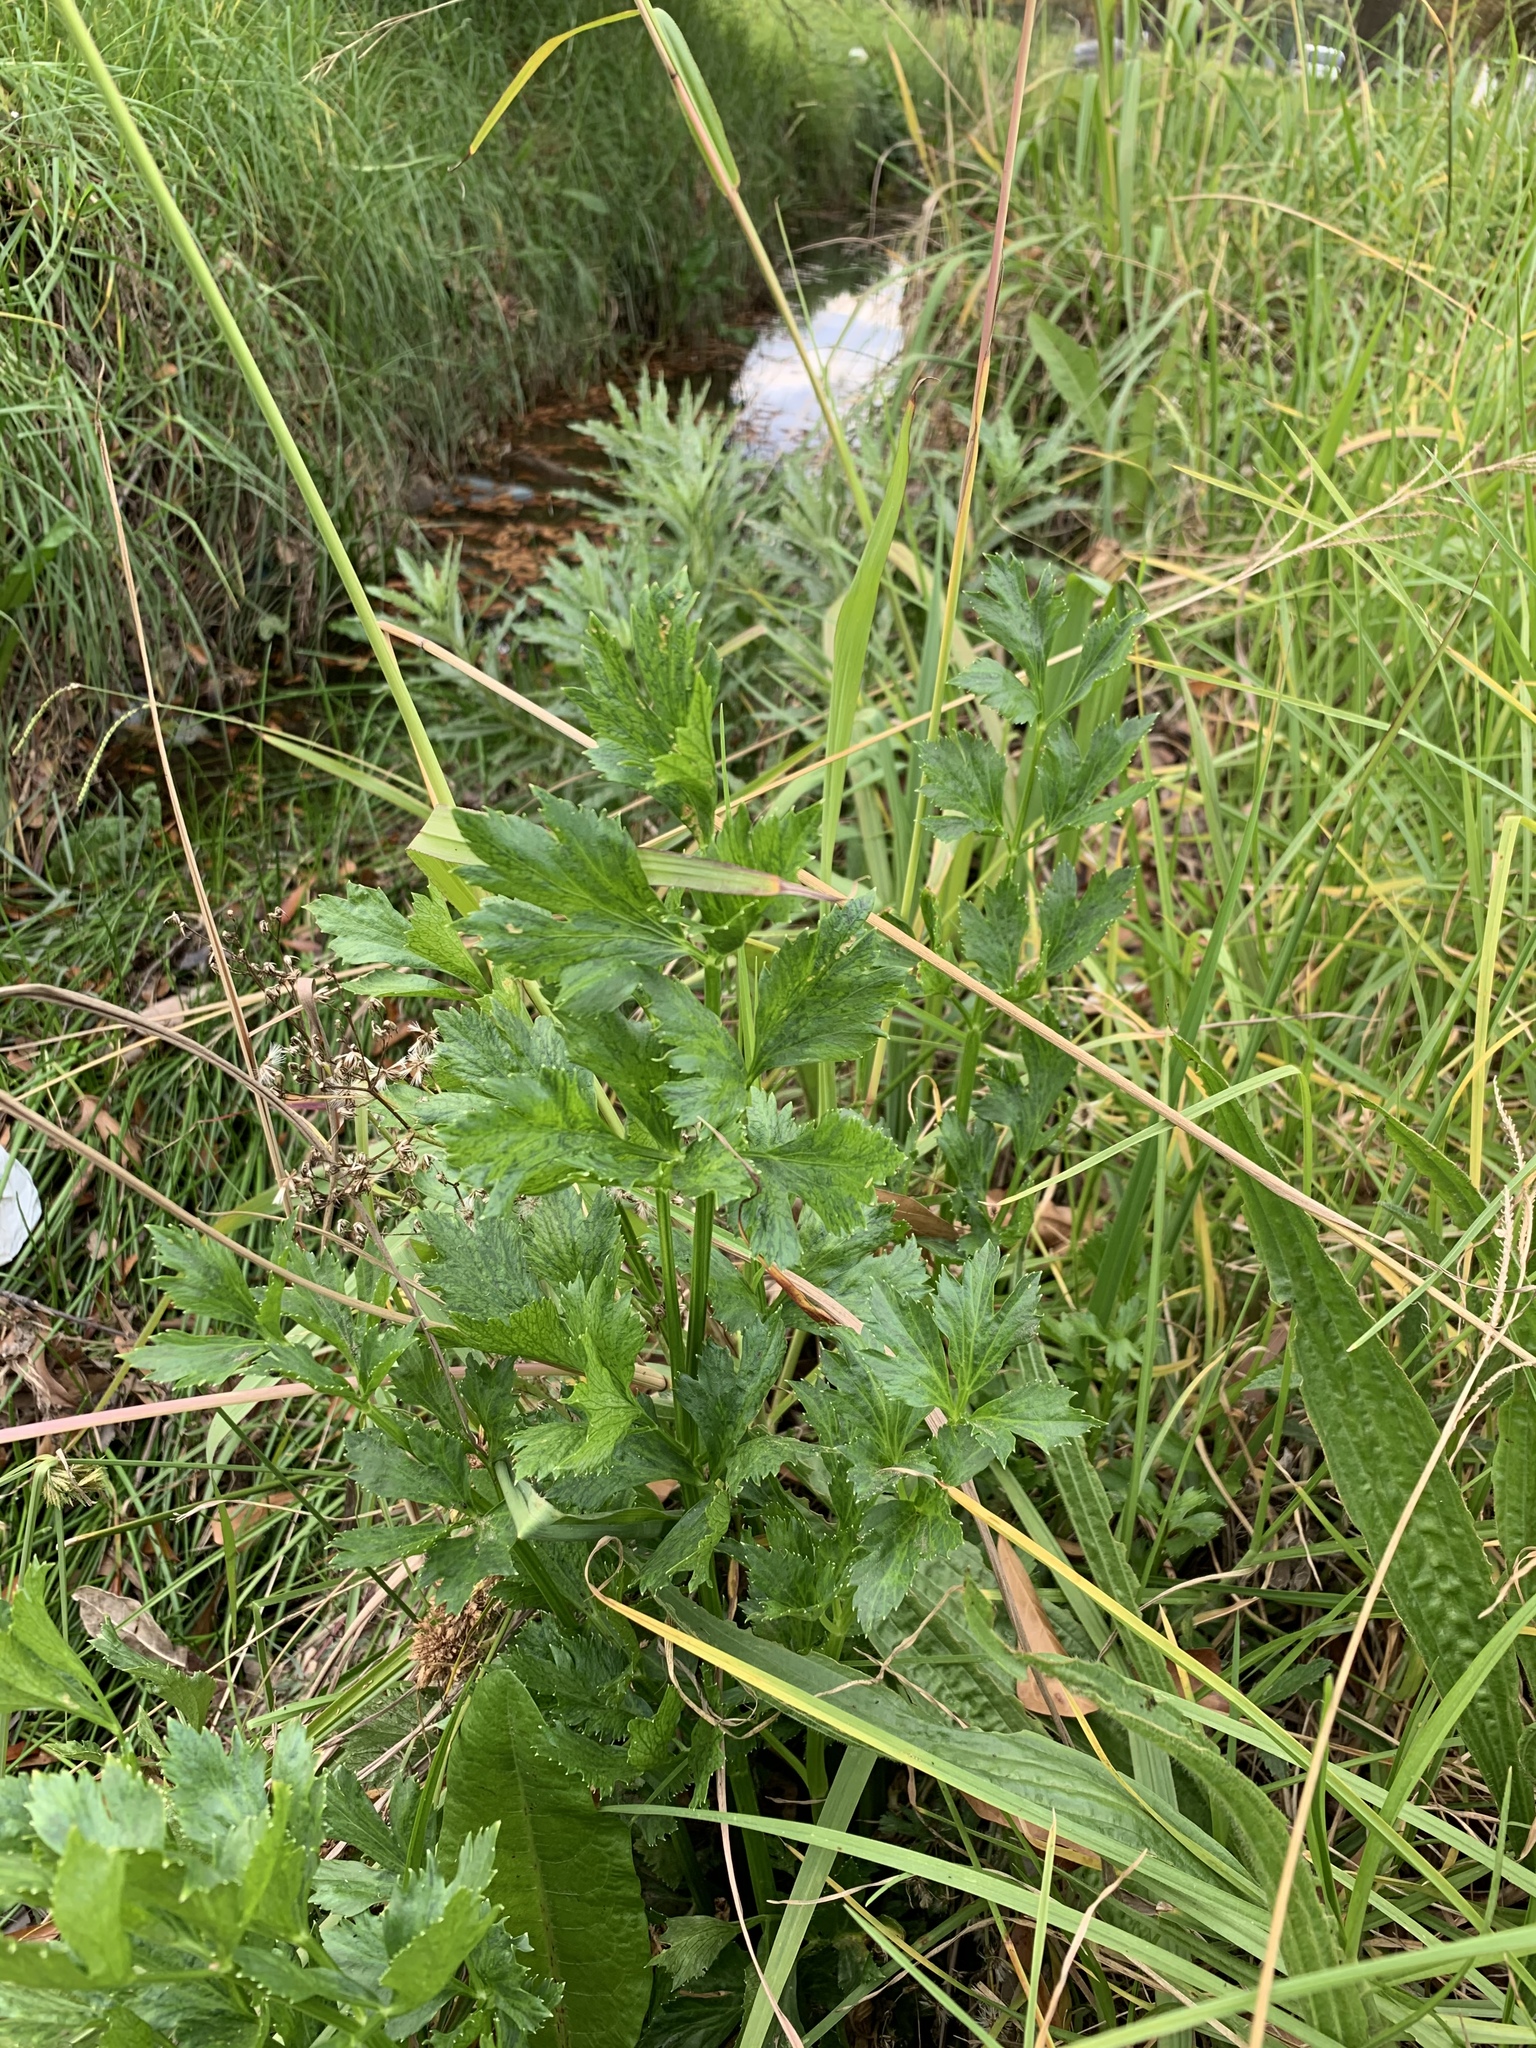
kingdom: Plantae
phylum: Tracheophyta
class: Magnoliopsida
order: Apiales
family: Apiaceae
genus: Apium
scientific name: Apium graveolens
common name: Wild celery
